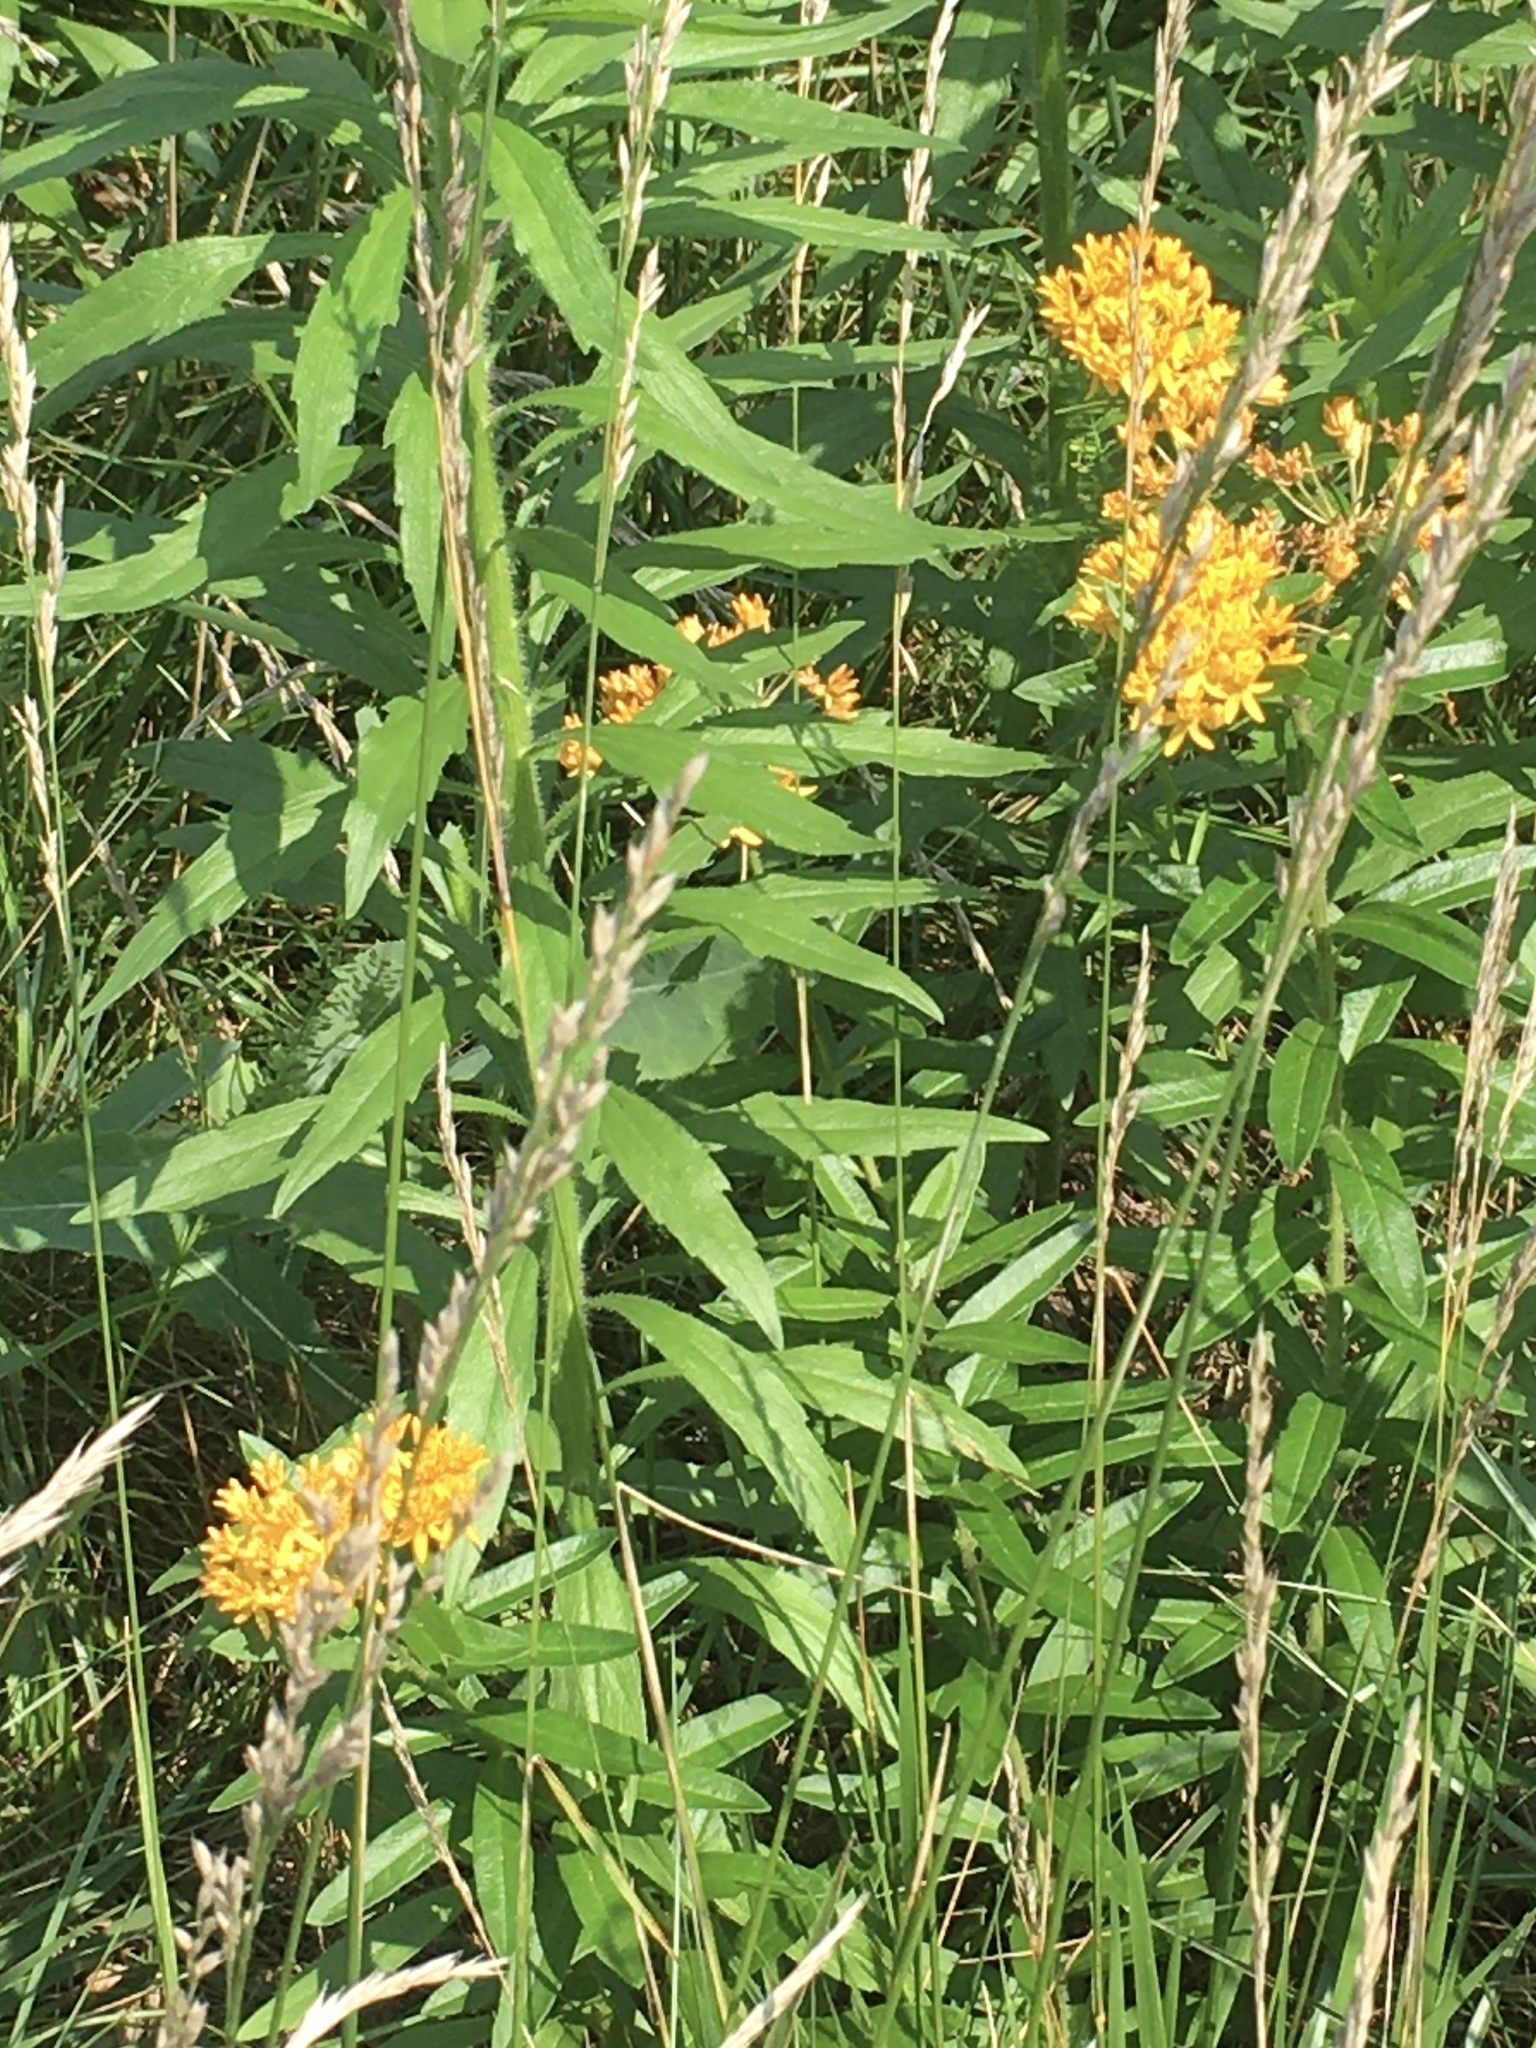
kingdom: Plantae
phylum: Tracheophyta
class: Magnoliopsida
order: Gentianales
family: Apocynaceae
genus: Asclepias
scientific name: Asclepias tuberosa
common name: Butterfly milkweed
